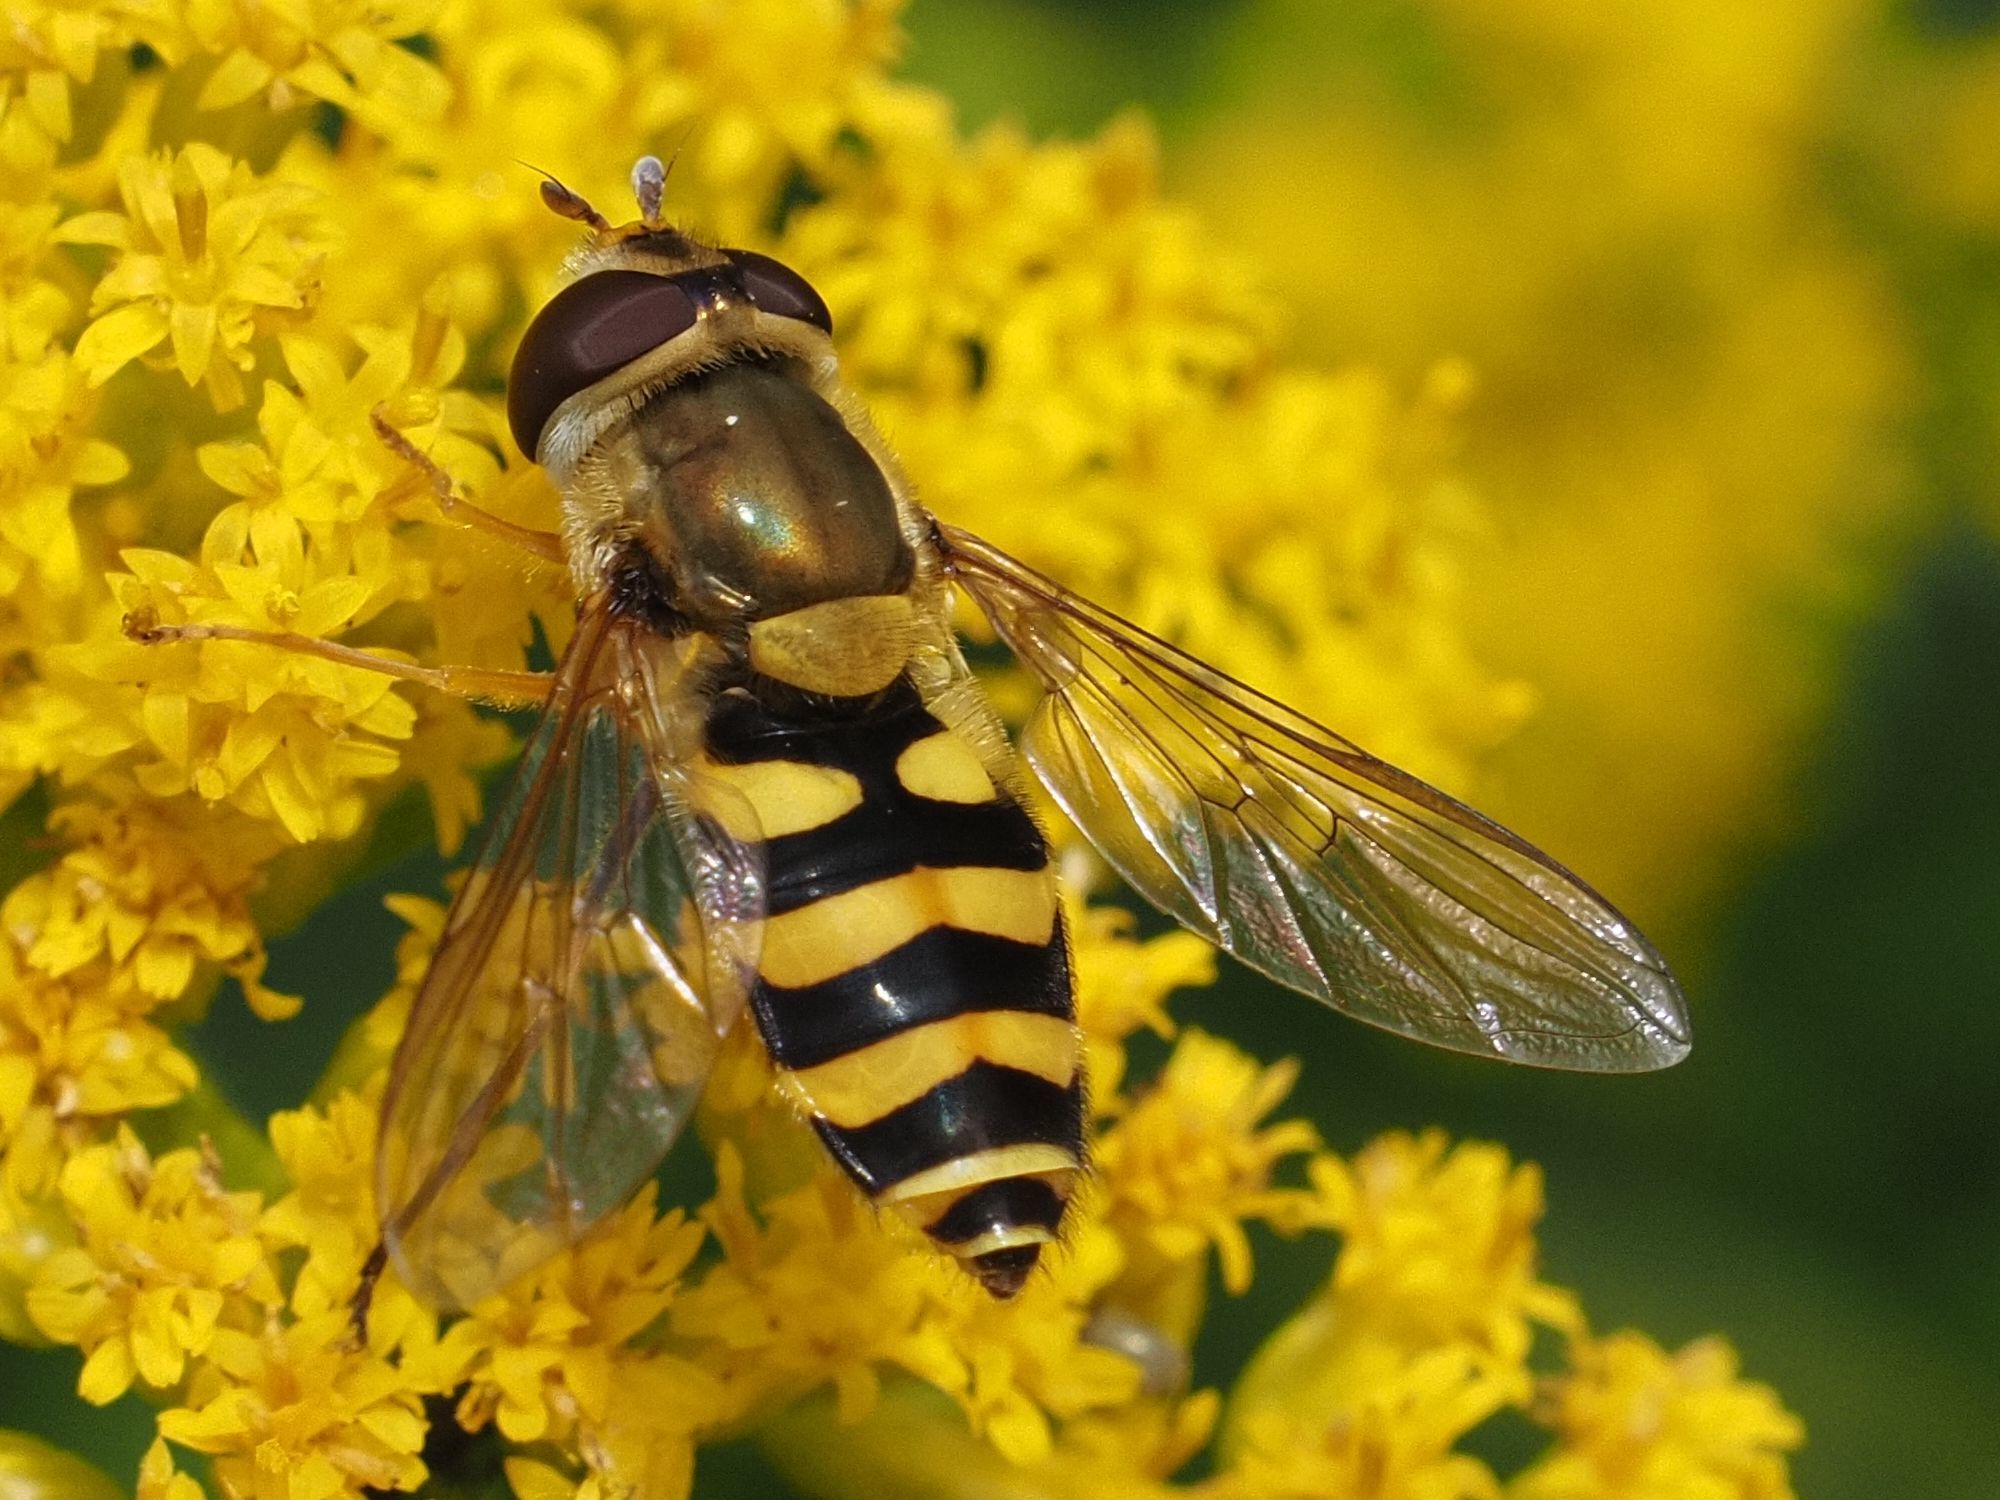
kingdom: Animalia
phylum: Arthropoda
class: Insecta
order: Diptera
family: Syrphidae
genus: Syrphus
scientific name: Syrphus vitripennis
